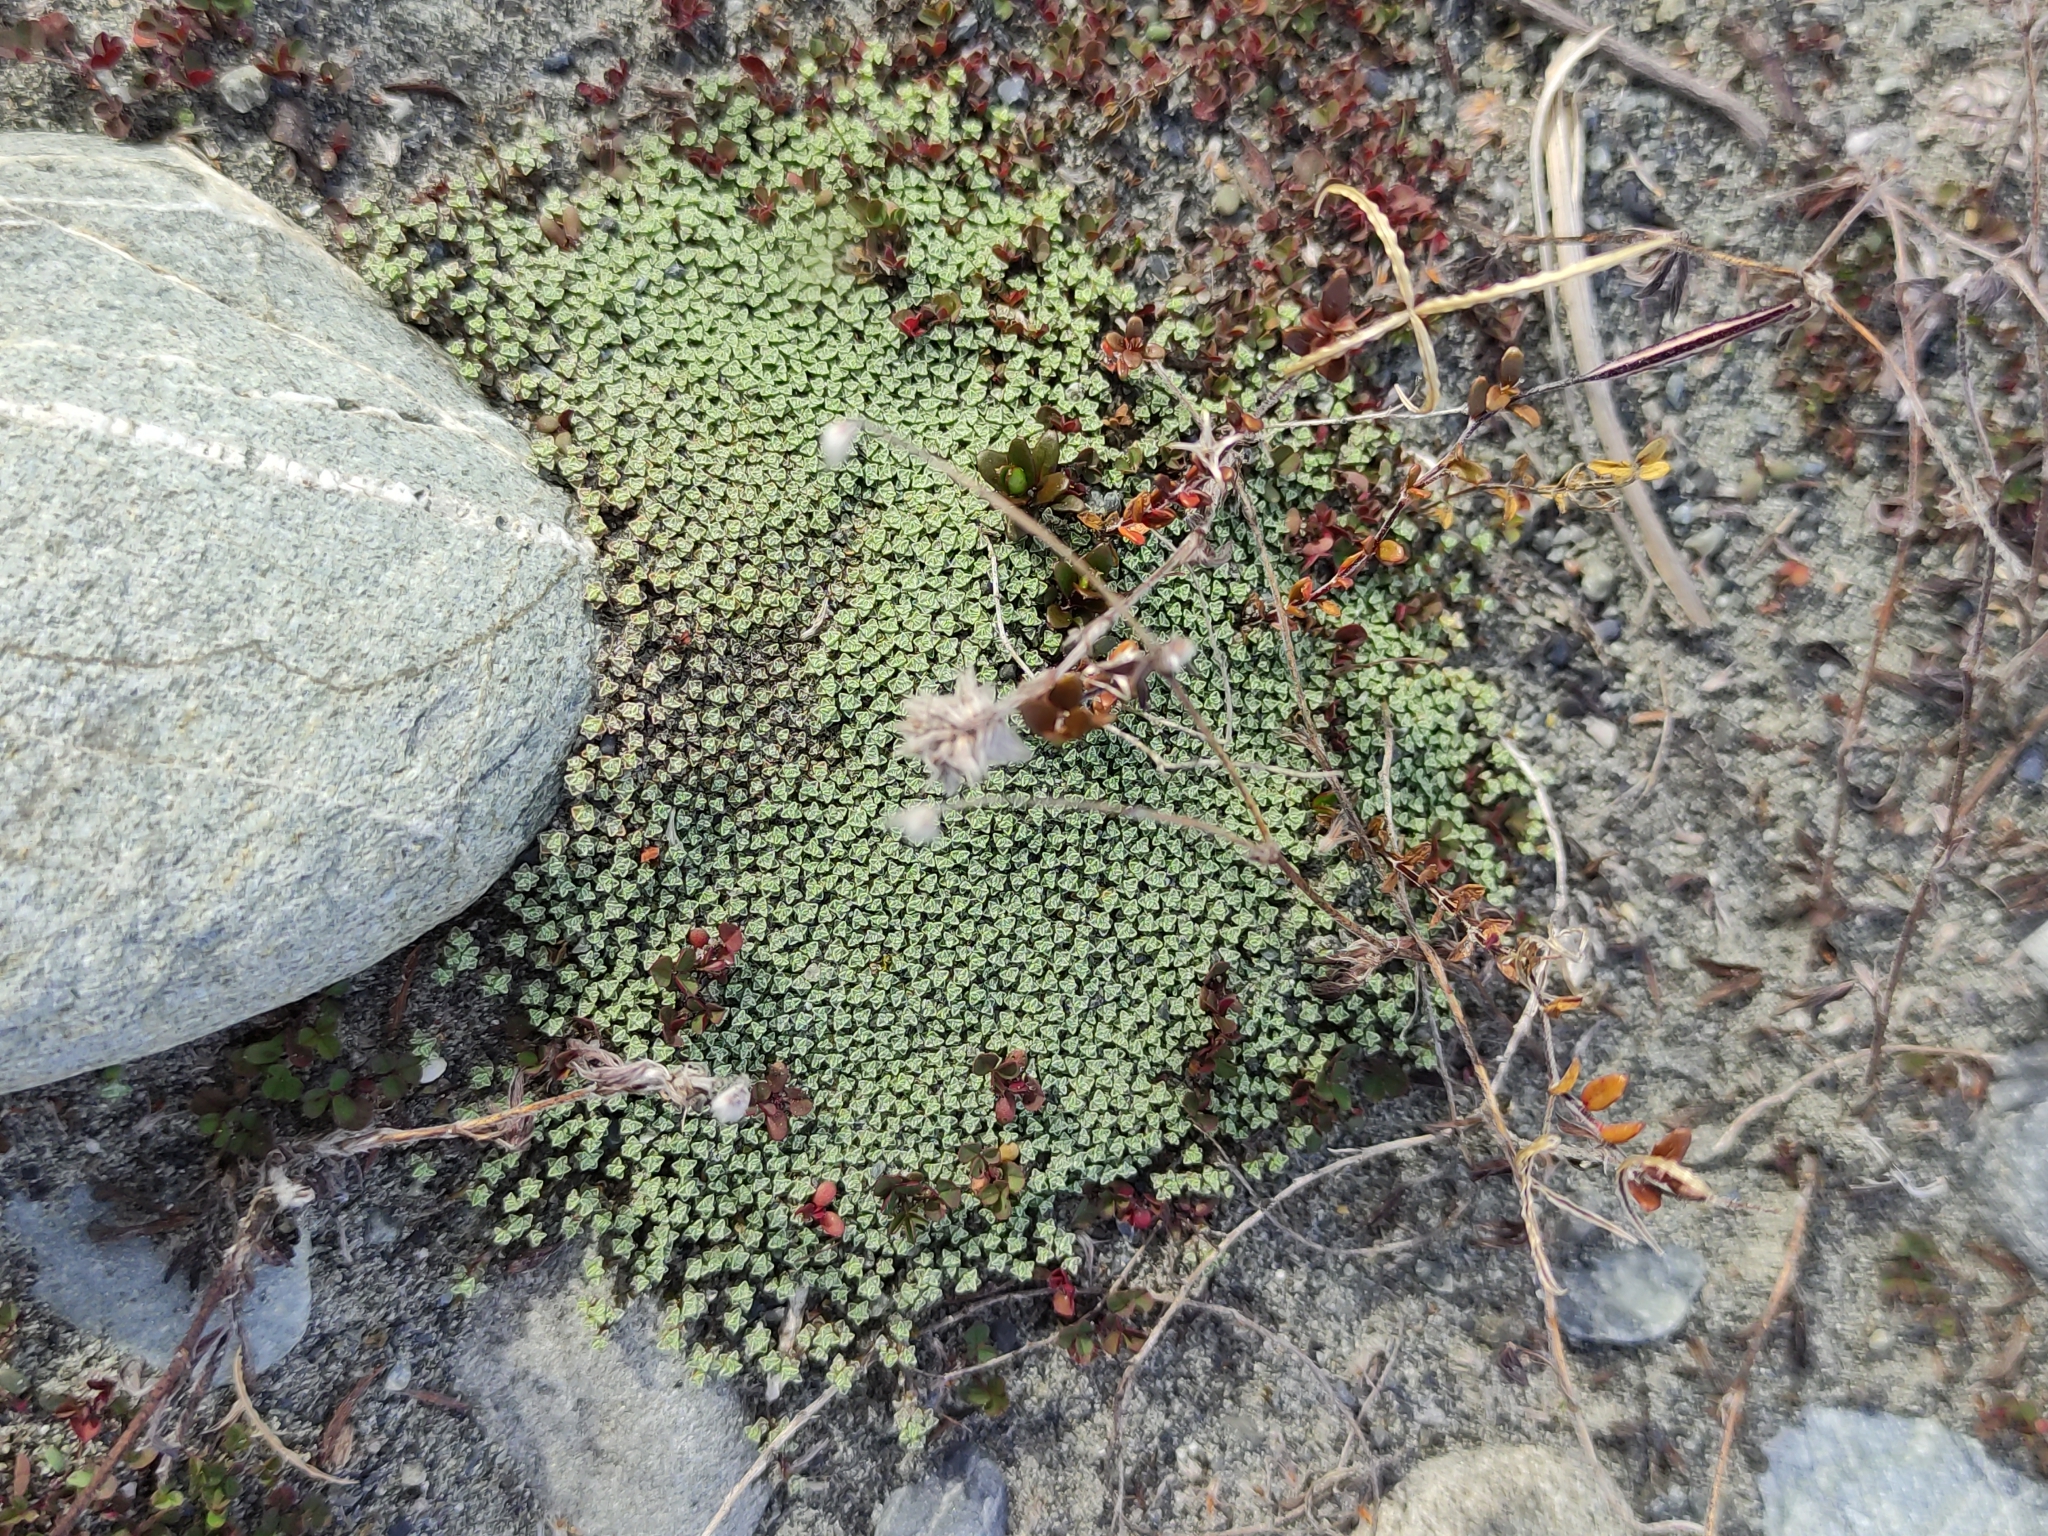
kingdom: Plantae
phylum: Tracheophyta
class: Magnoliopsida
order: Asterales
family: Asteraceae
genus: Raoulia
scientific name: Raoulia australis
